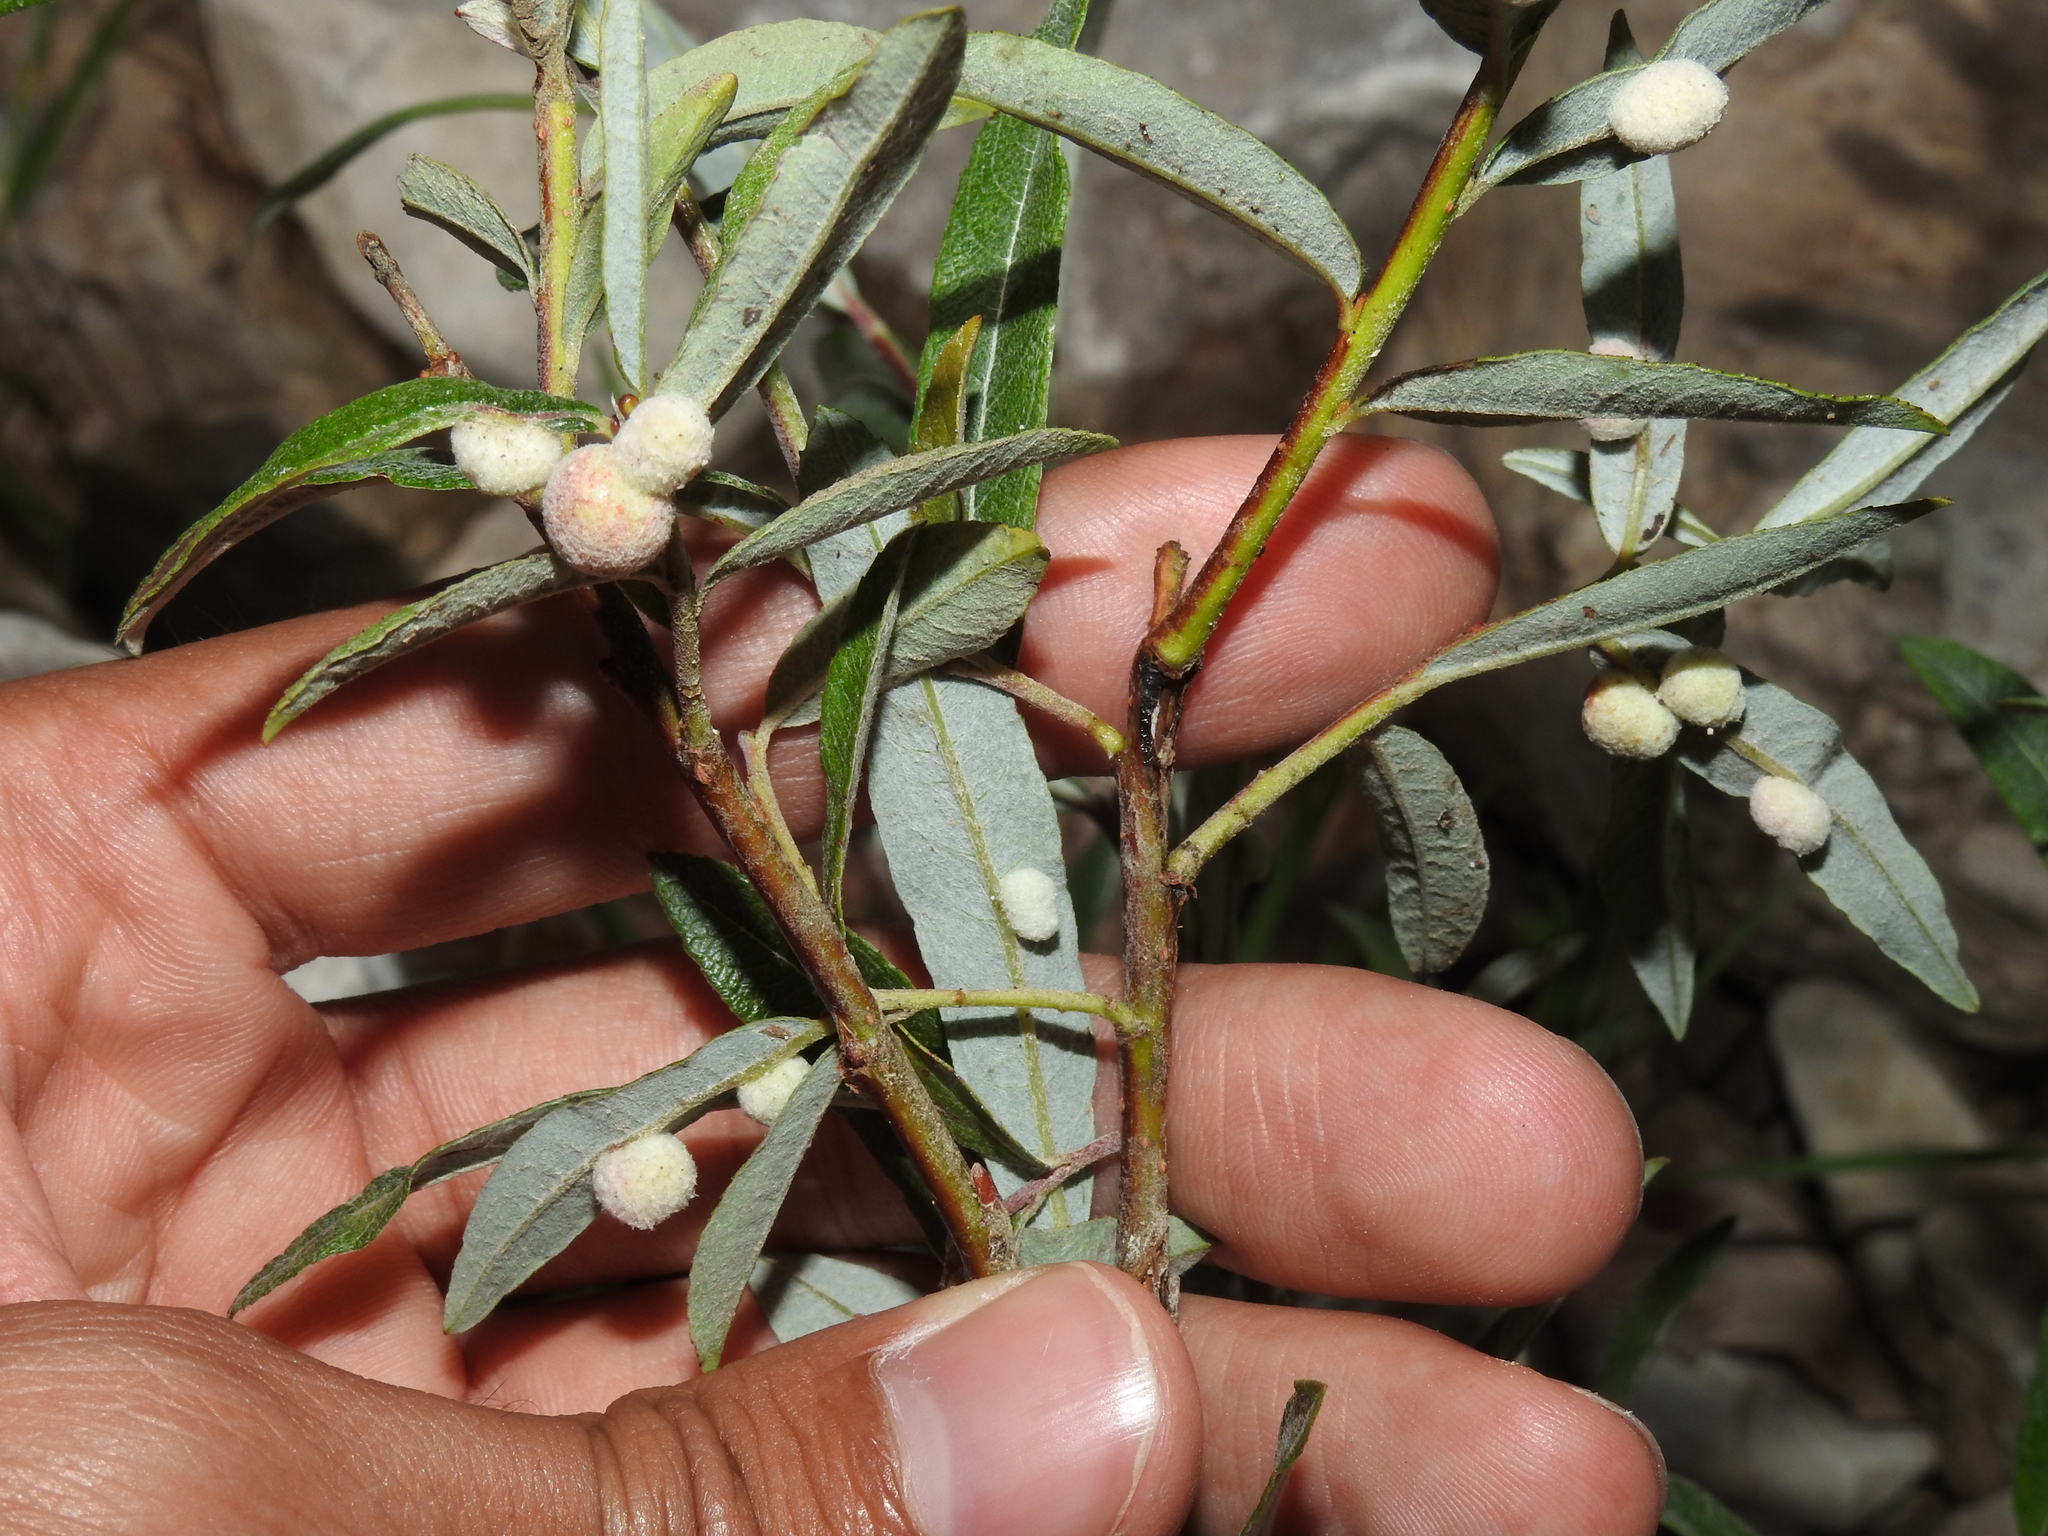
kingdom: Animalia
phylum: Arthropoda
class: Insecta
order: Hymenoptera
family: Tenthredinidae
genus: Euura
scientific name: Euura kriechbaumeri
